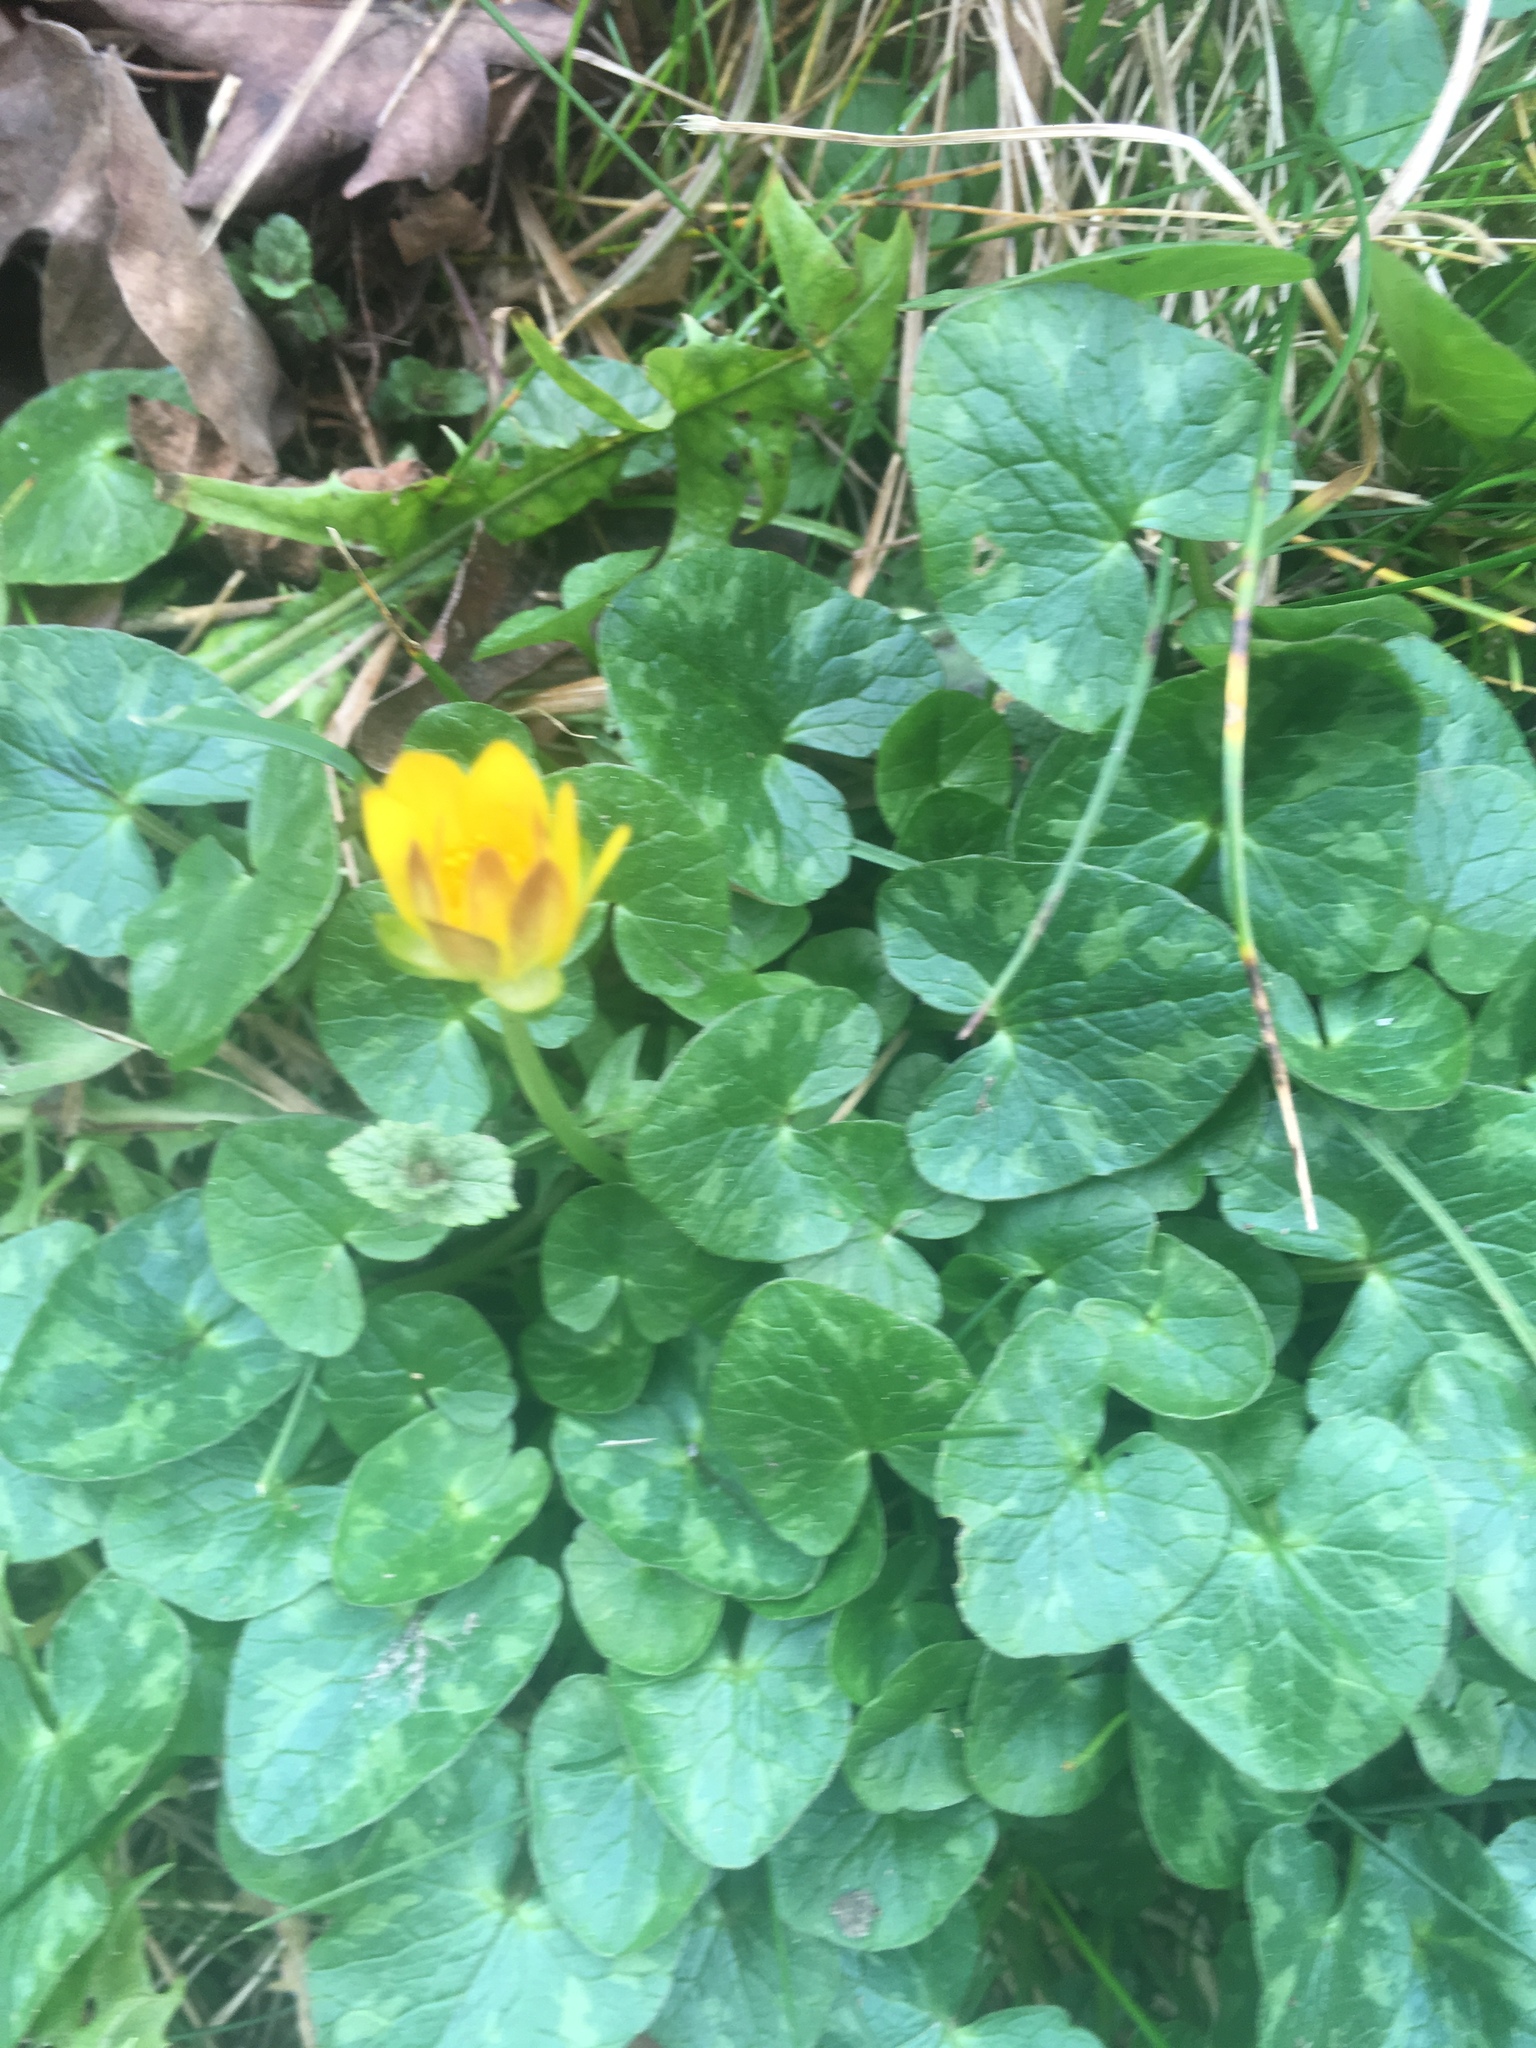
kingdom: Plantae
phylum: Tracheophyta
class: Magnoliopsida
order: Ranunculales
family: Ranunculaceae
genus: Ficaria
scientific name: Ficaria verna
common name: Lesser celandine
